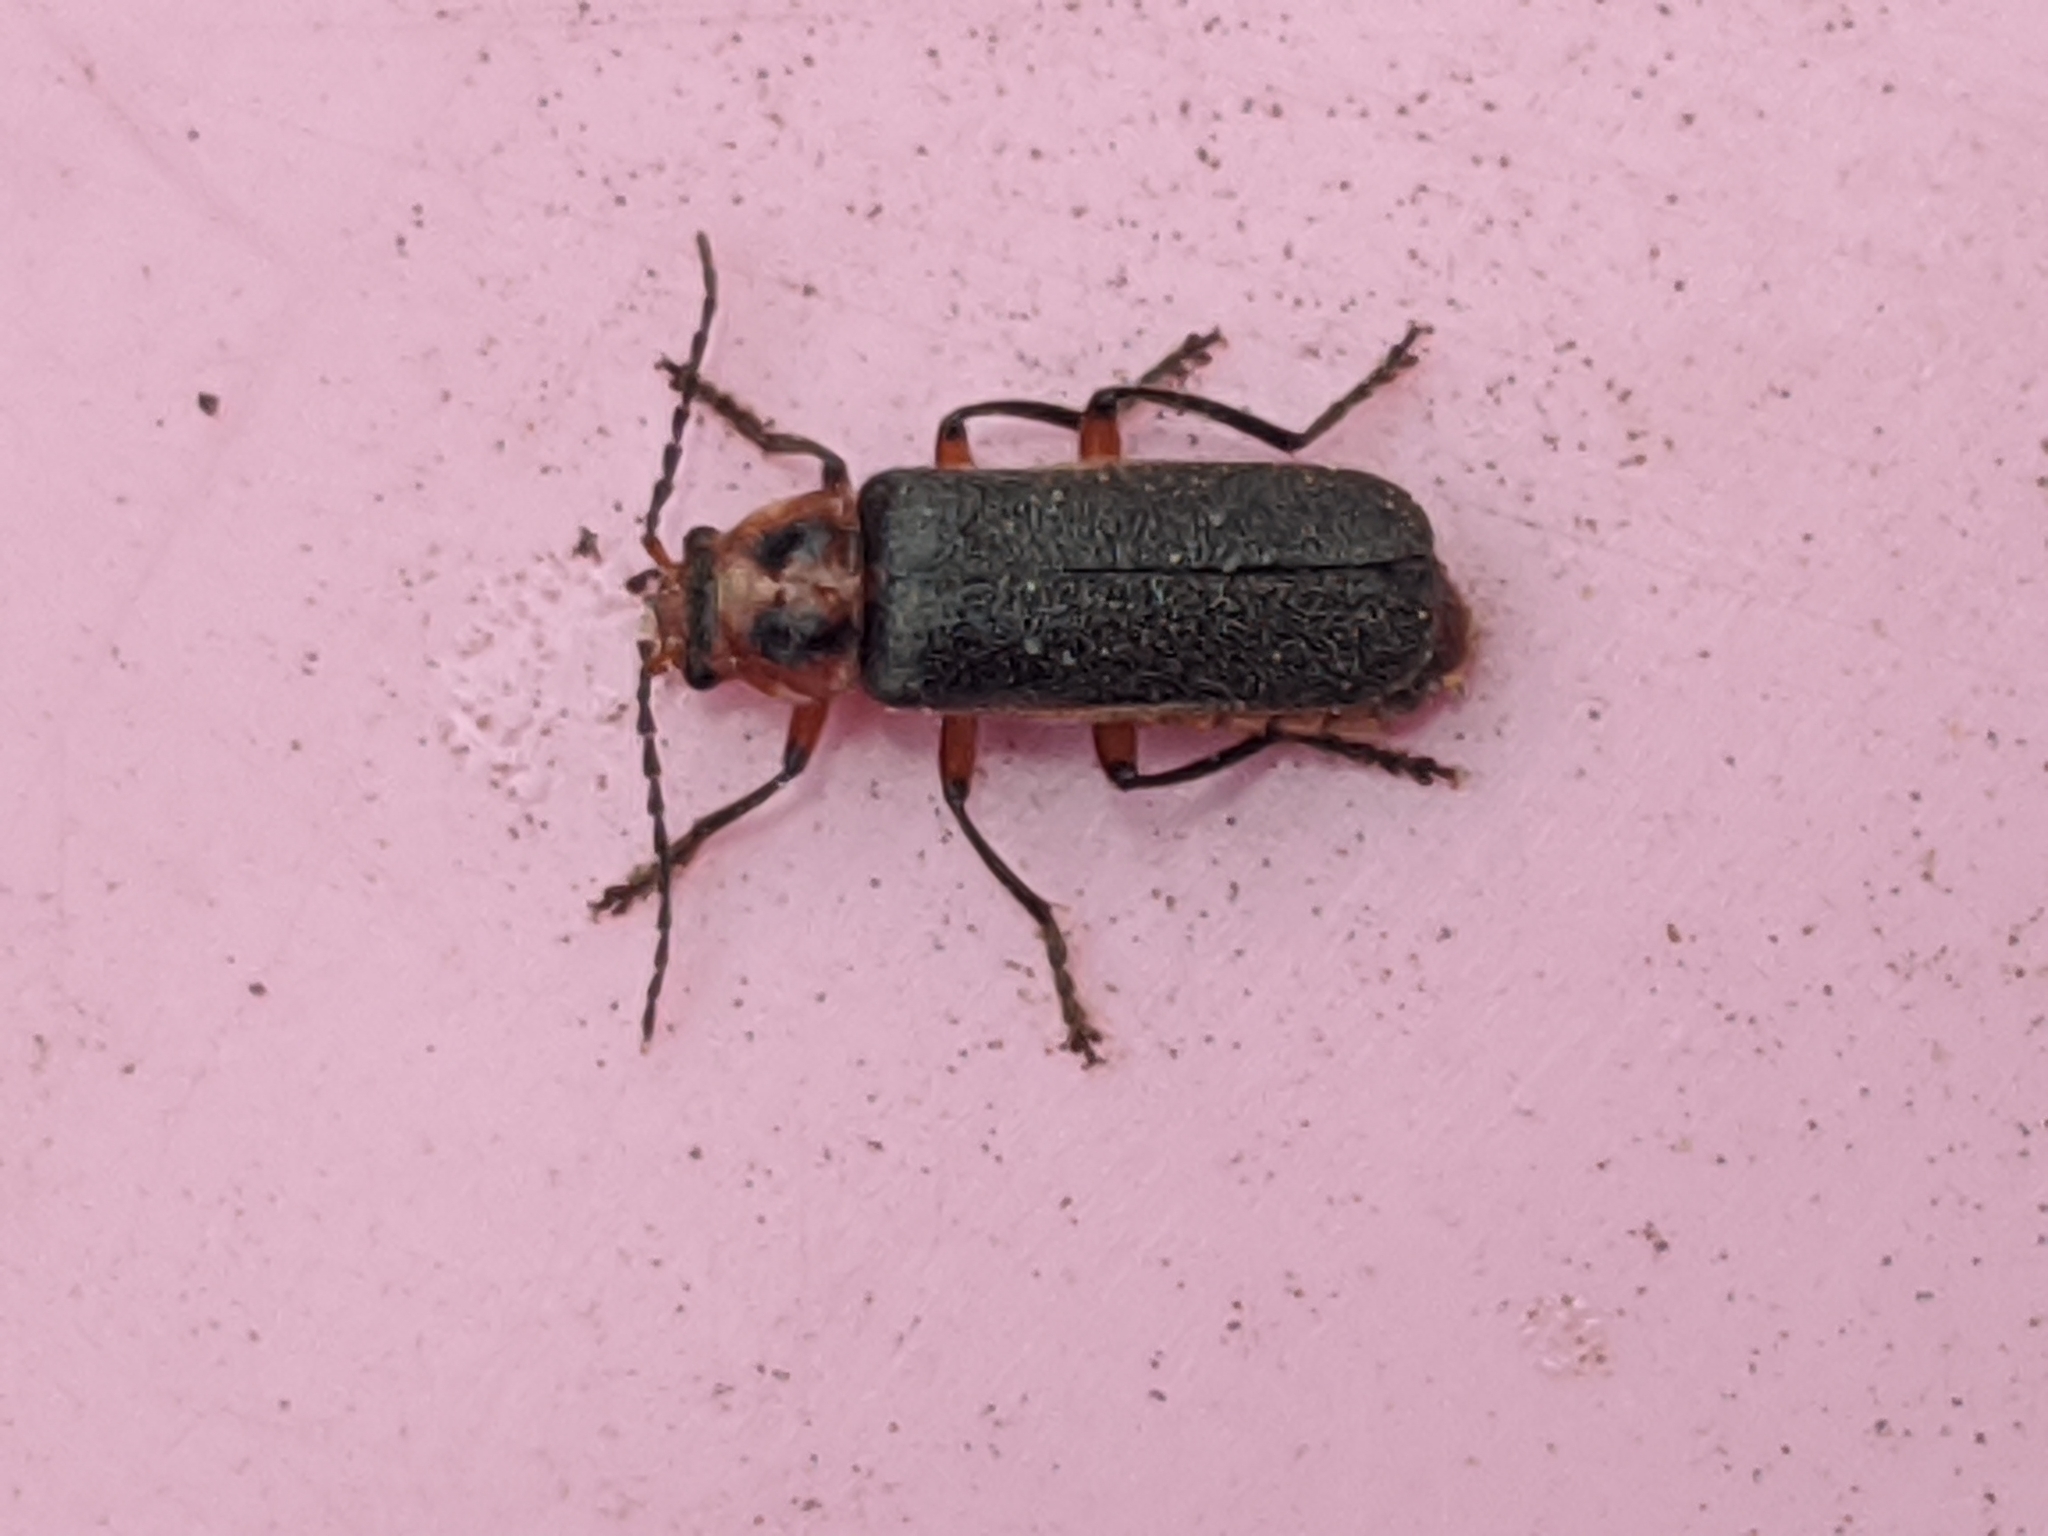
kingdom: Animalia
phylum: Arthropoda
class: Insecta
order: Coleoptera
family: Cantharidae
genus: Atalantycha
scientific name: Atalantycha bilineata
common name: Two-lined leatherwing
